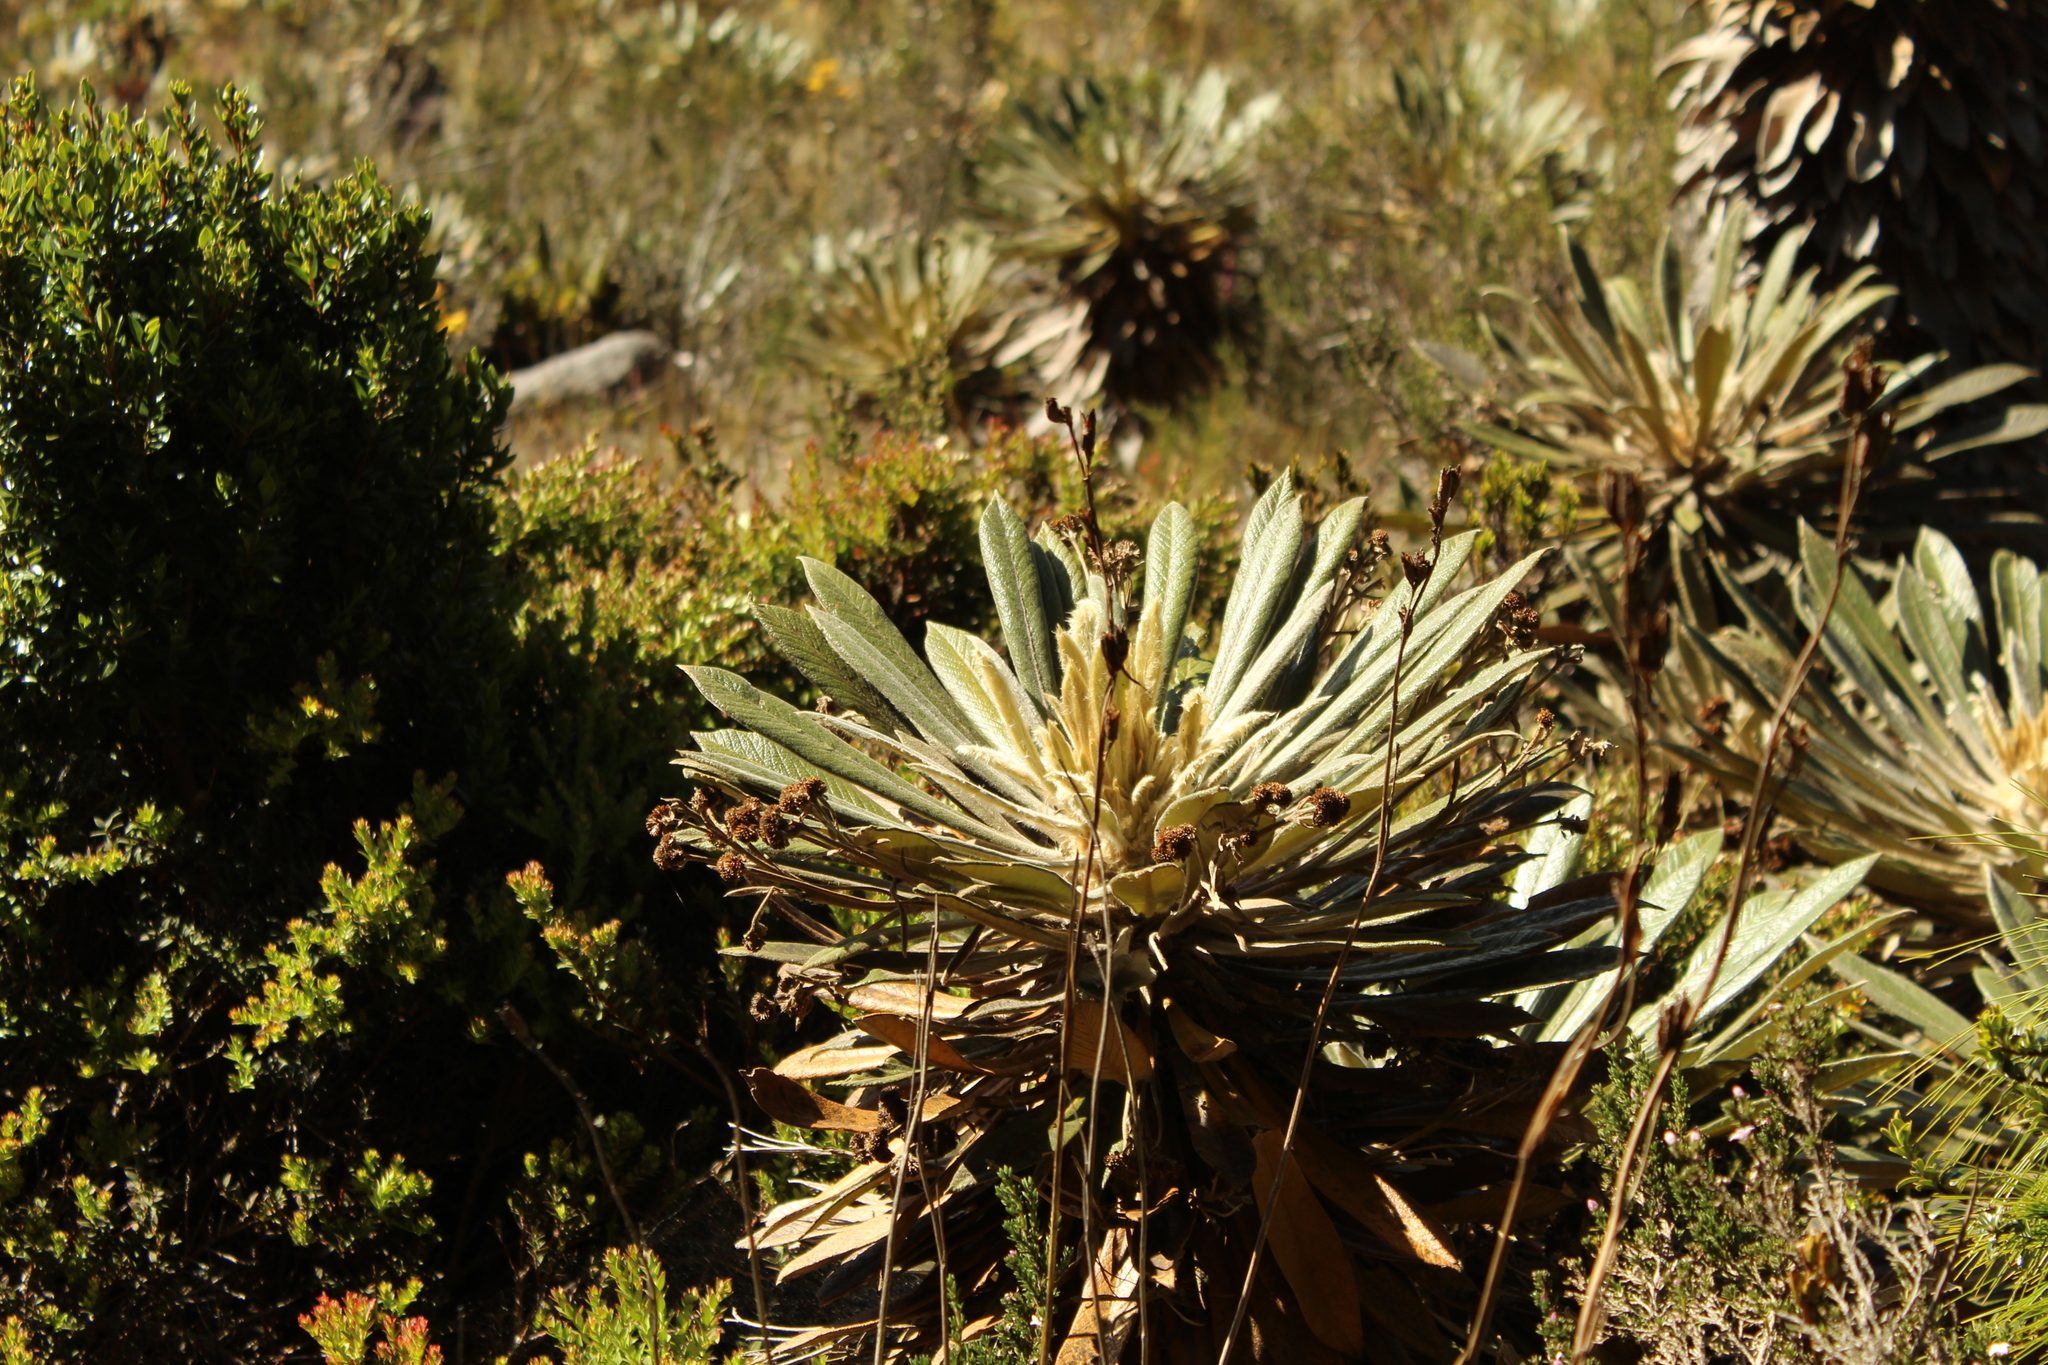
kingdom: Plantae
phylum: Tracheophyta
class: Magnoliopsida
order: Asterales
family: Asteraceae
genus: Espeletia
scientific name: Espeletia guacharaca
